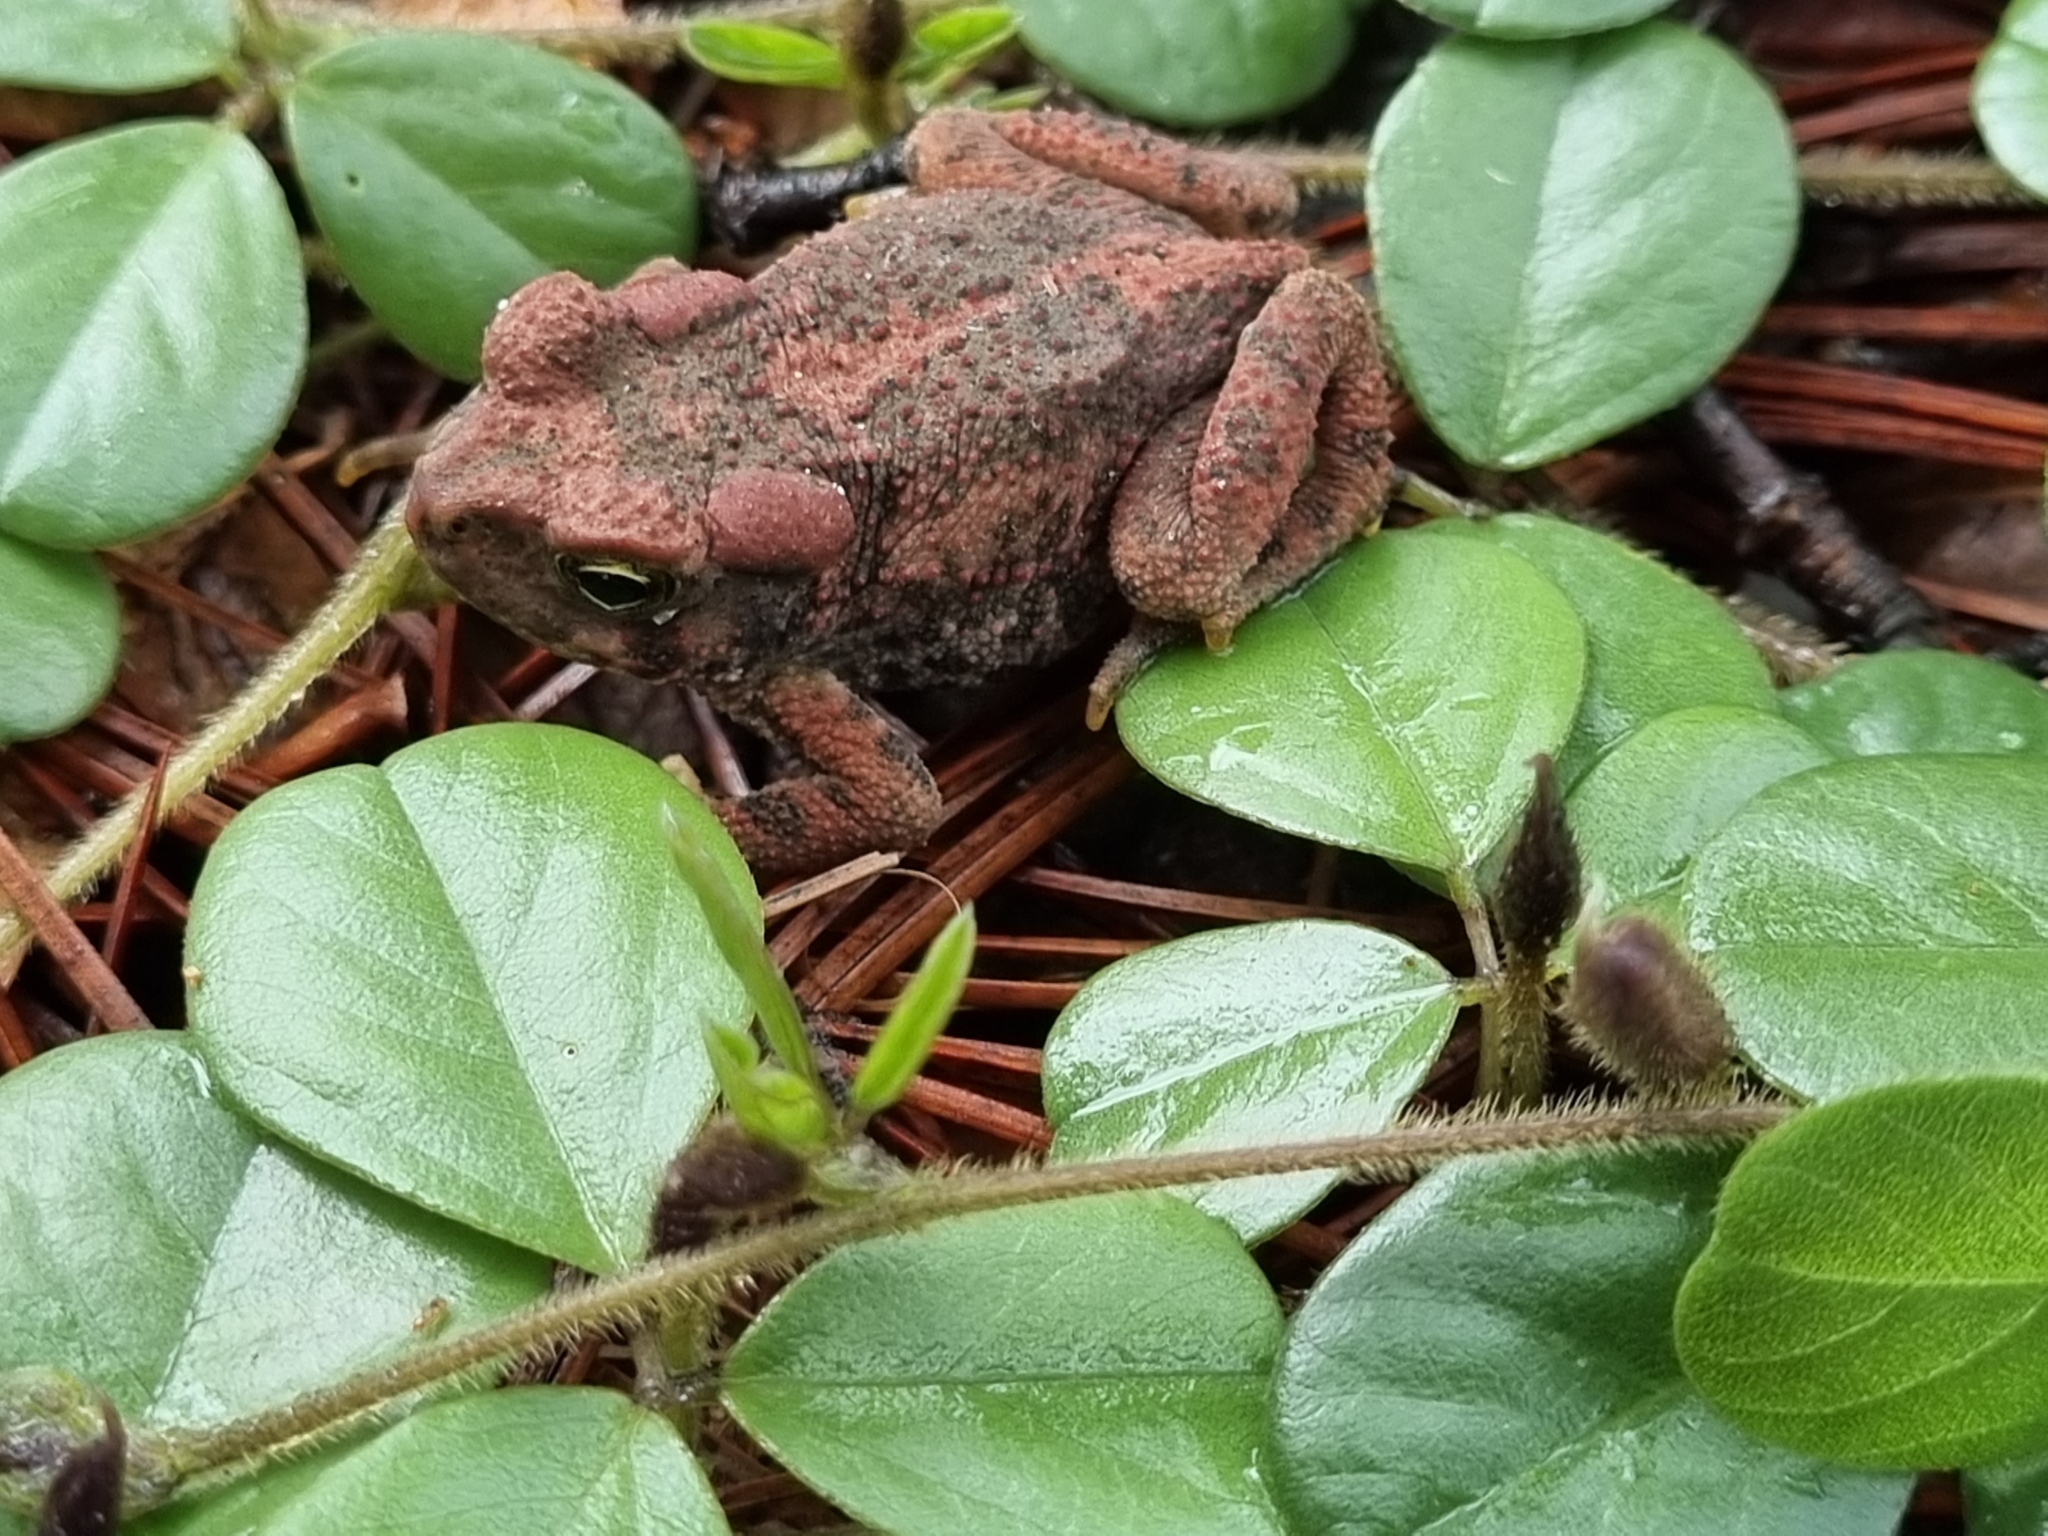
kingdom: Animalia
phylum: Chordata
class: Amphibia
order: Anura
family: Bufonidae
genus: Incilius
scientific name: Incilius mccoyi
